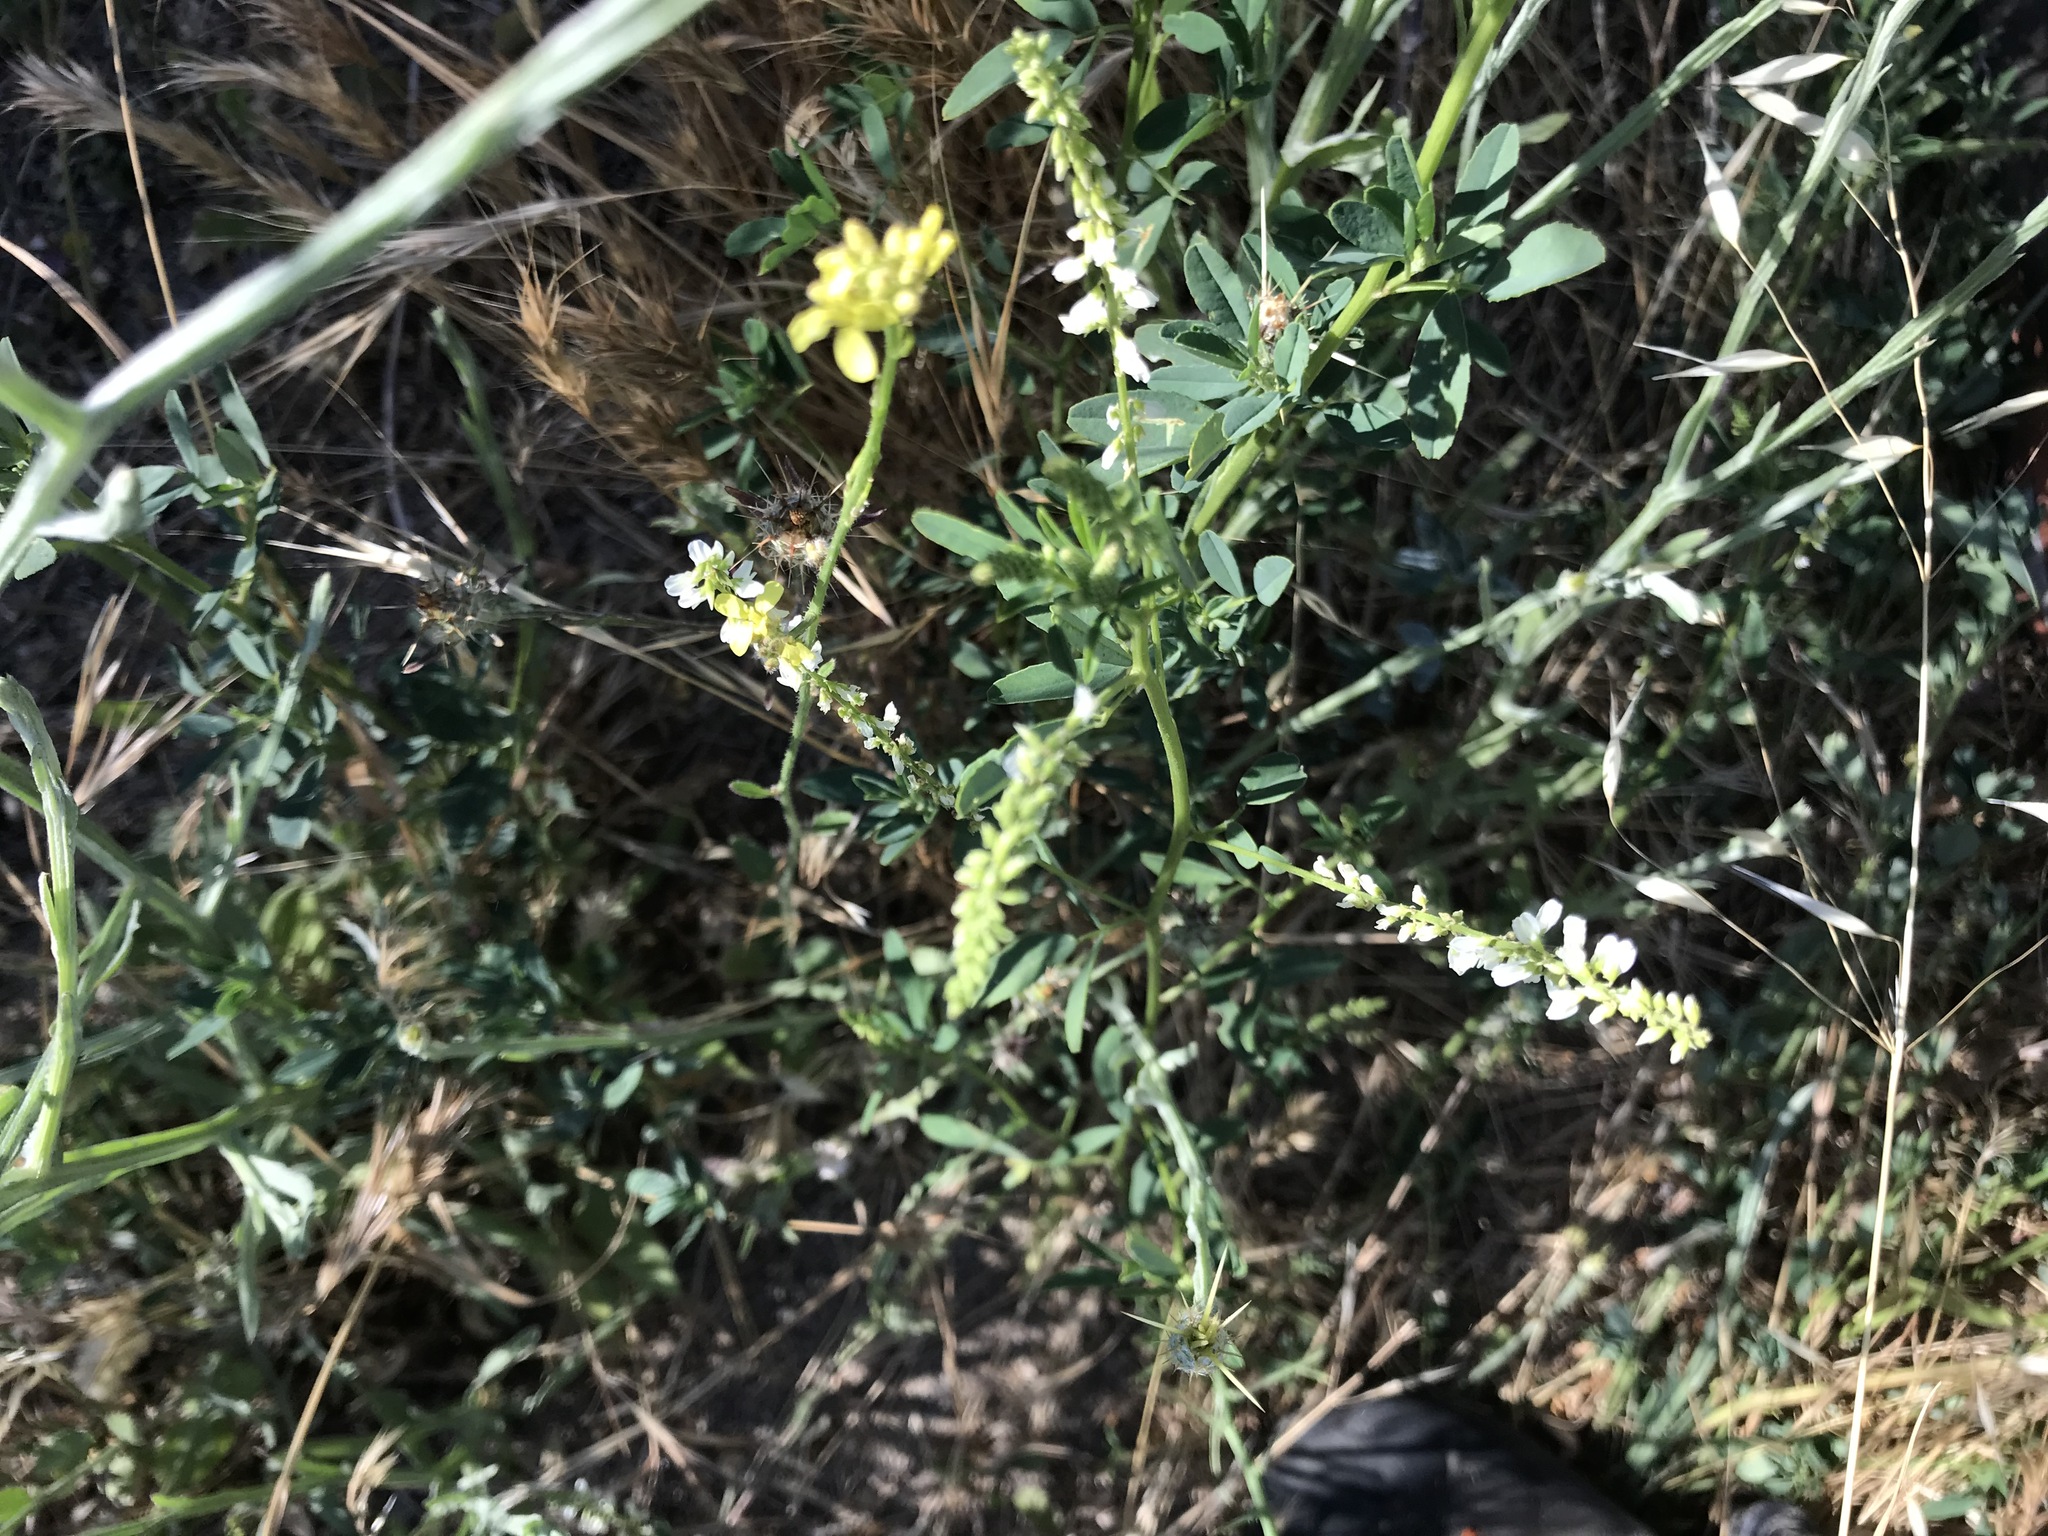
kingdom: Plantae
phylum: Tracheophyta
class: Magnoliopsida
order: Fabales
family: Fabaceae
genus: Melilotus
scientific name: Melilotus albus
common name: White melilot
